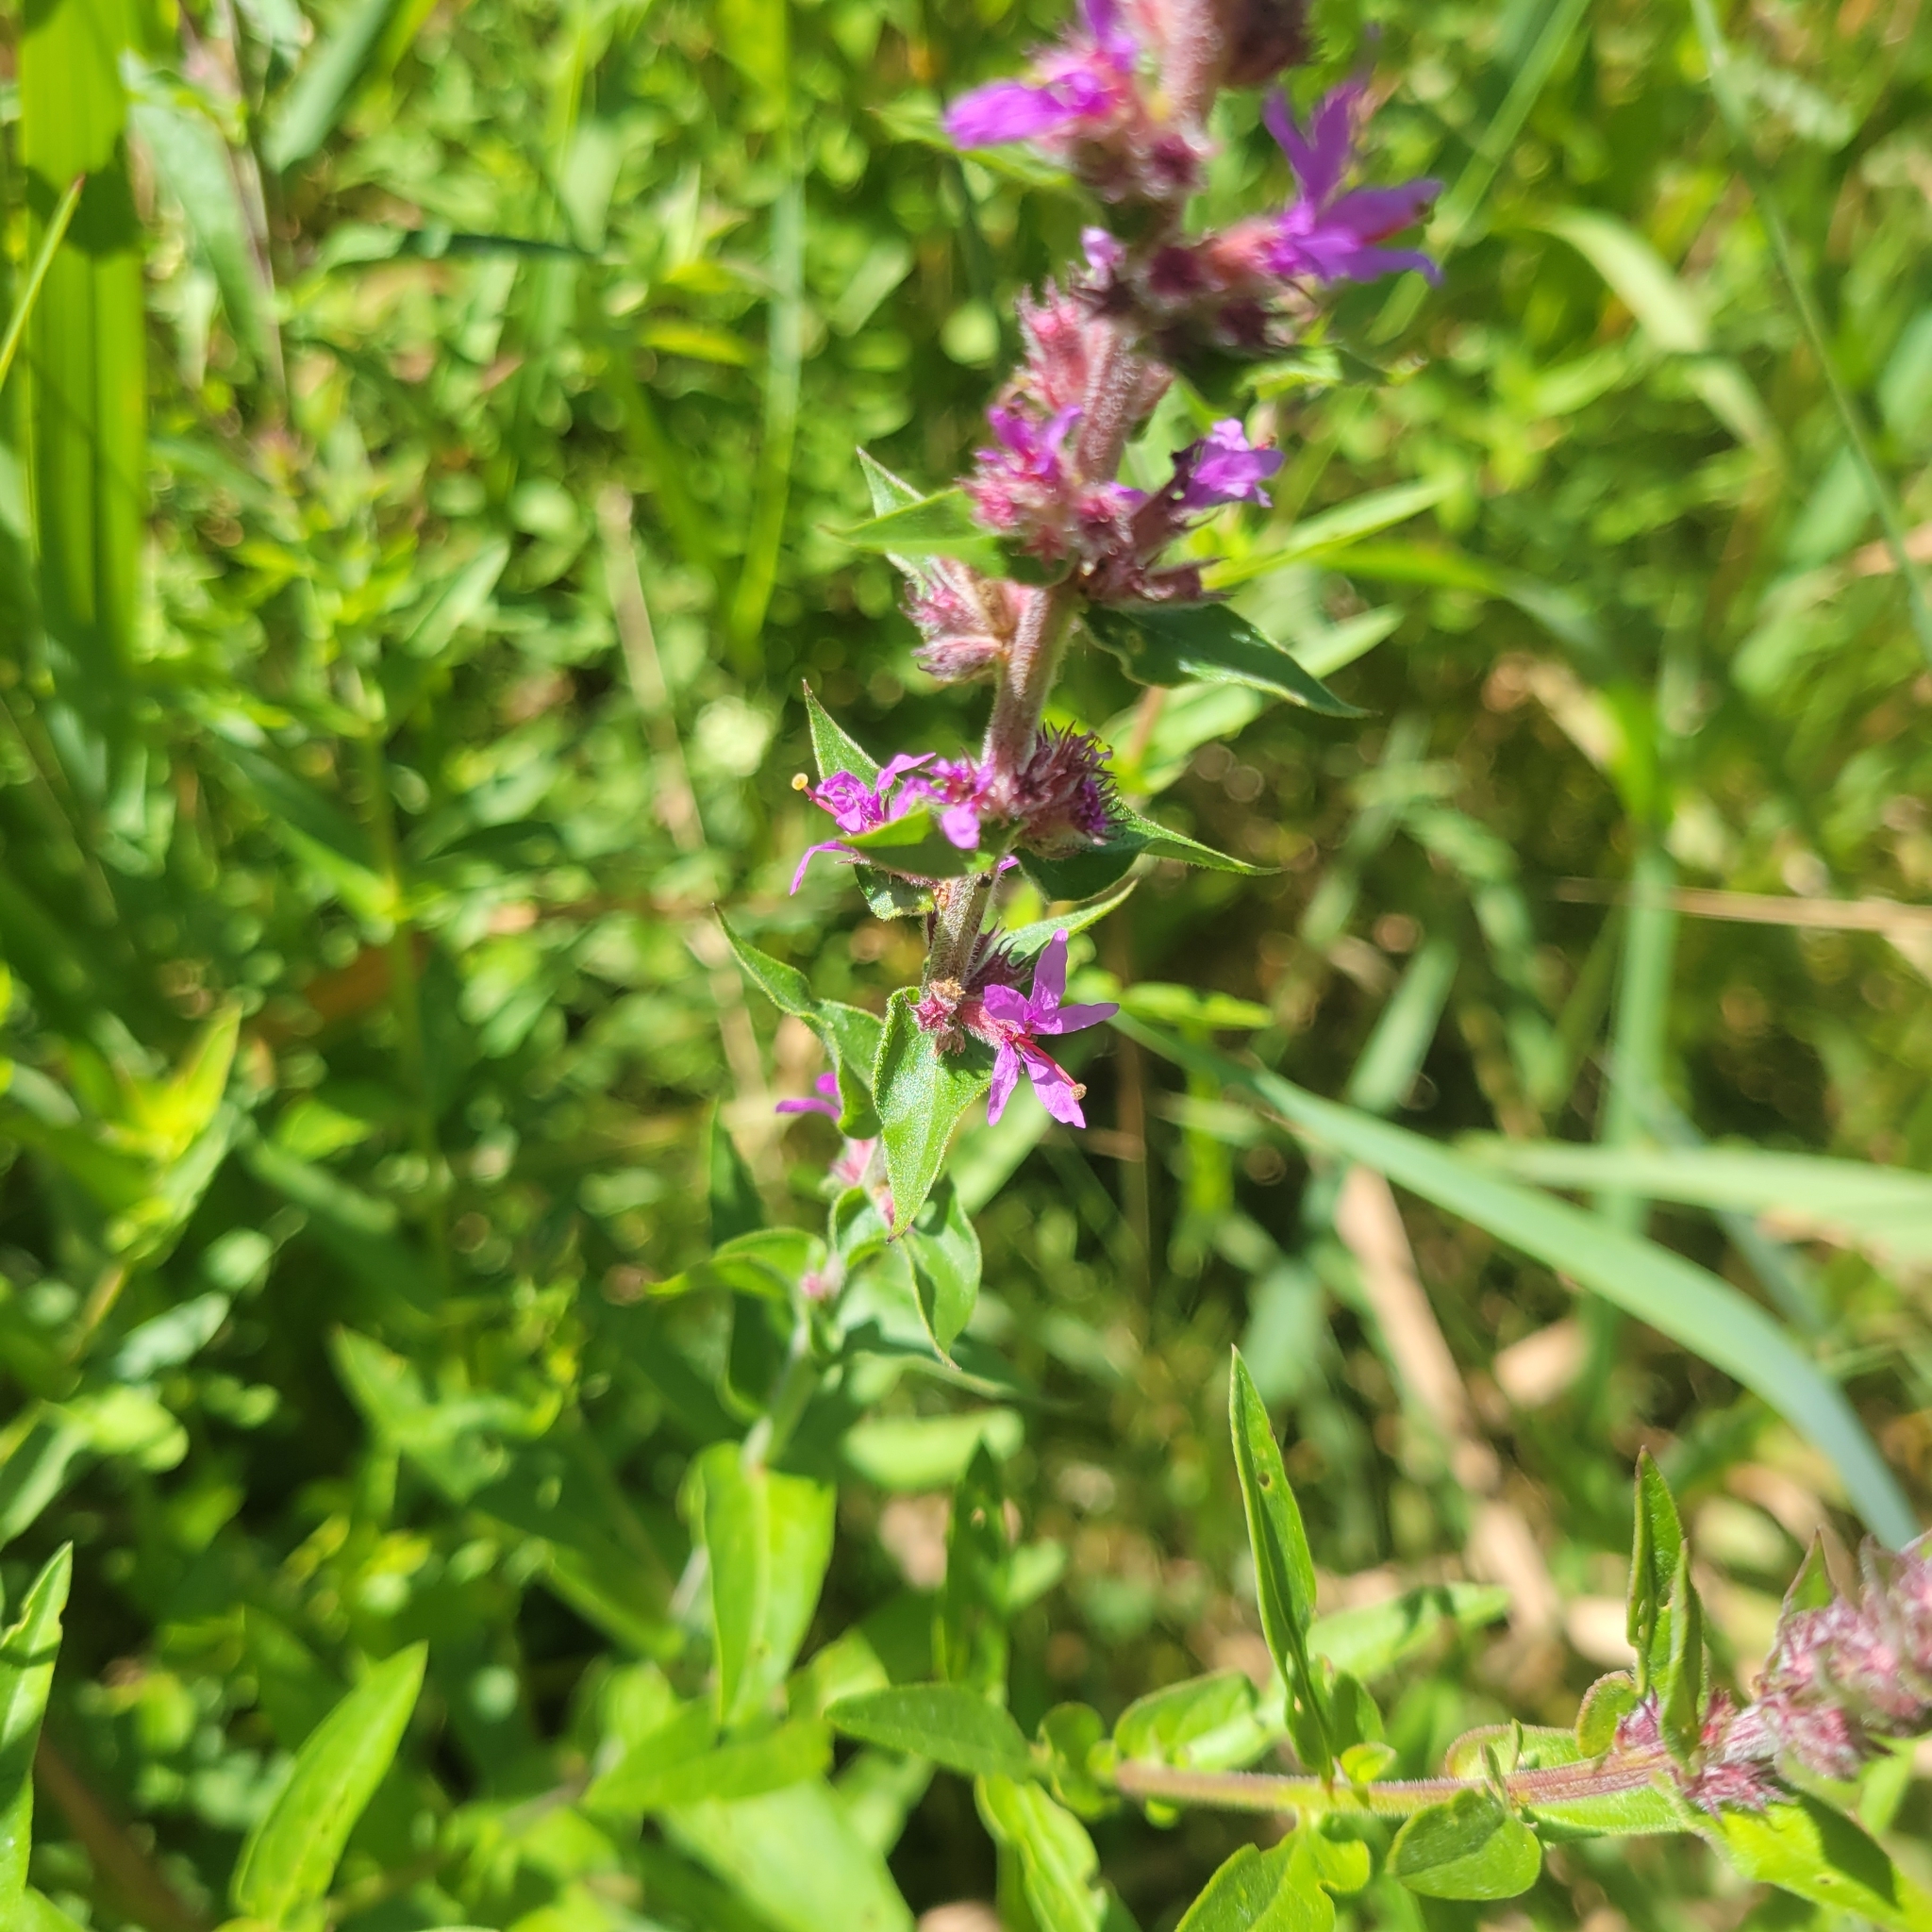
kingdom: Plantae
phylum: Tracheophyta
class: Magnoliopsida
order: Myrtales
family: Lythraceae
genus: Lythrum
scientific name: Lythrum salicaria
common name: Purple loosestrife
